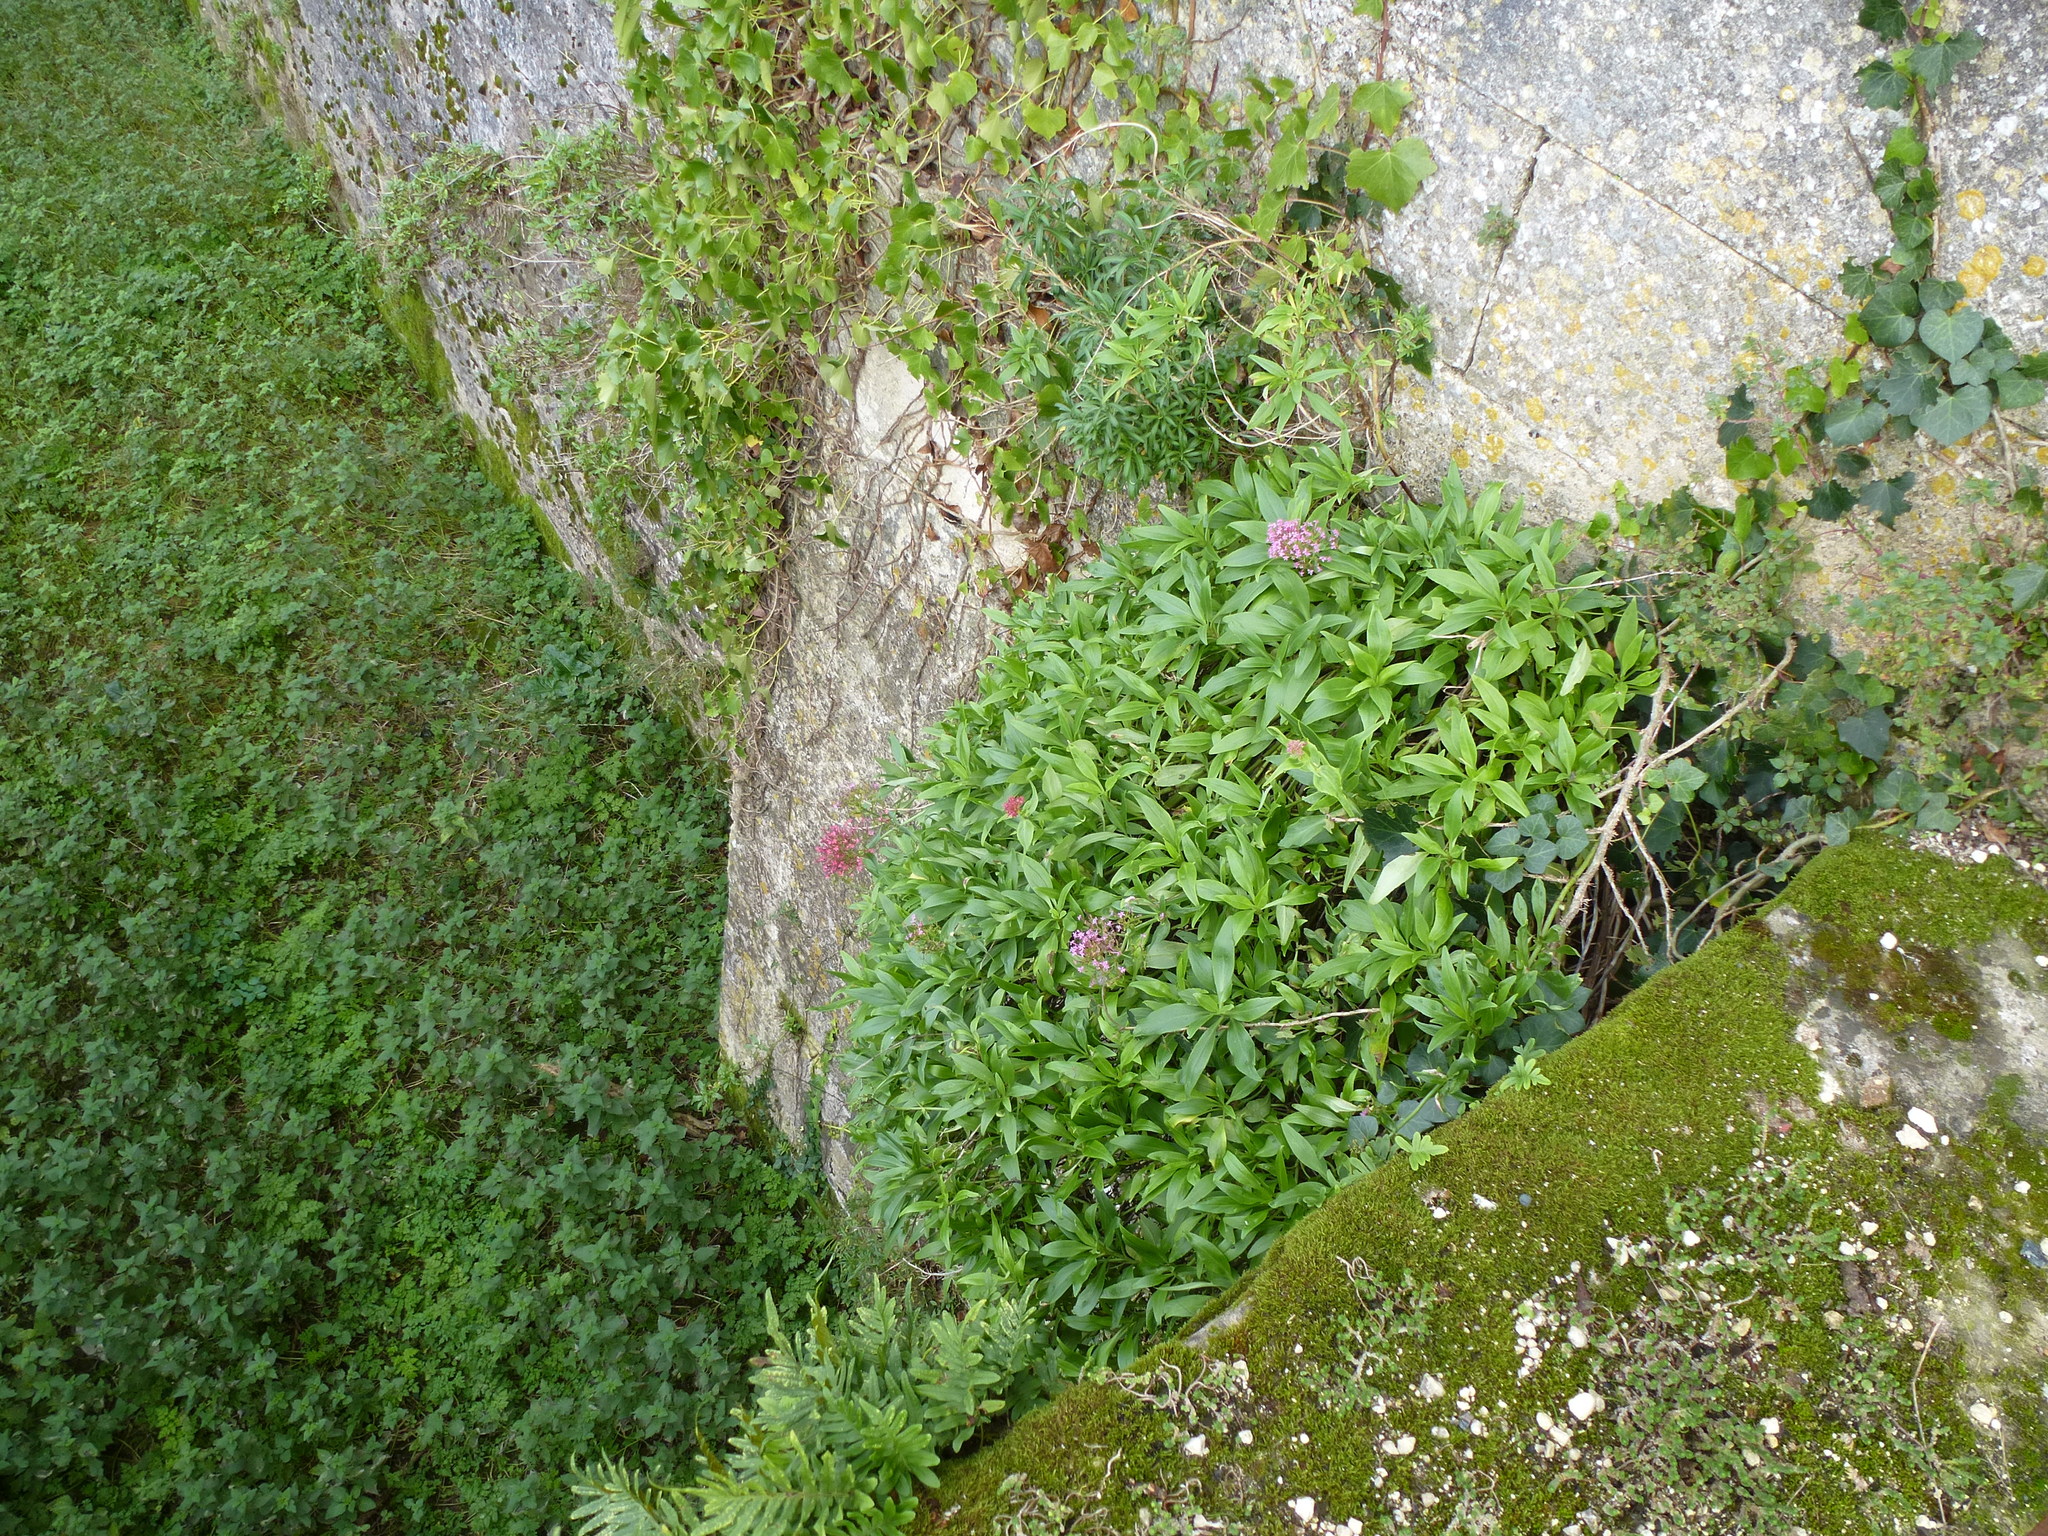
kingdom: Plantae
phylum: Tracheophyta
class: Magnoliopsida
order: Dipsacales
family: Caprifoliaceae
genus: Centranthus
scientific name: Centranthus ruber
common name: Red valerian
